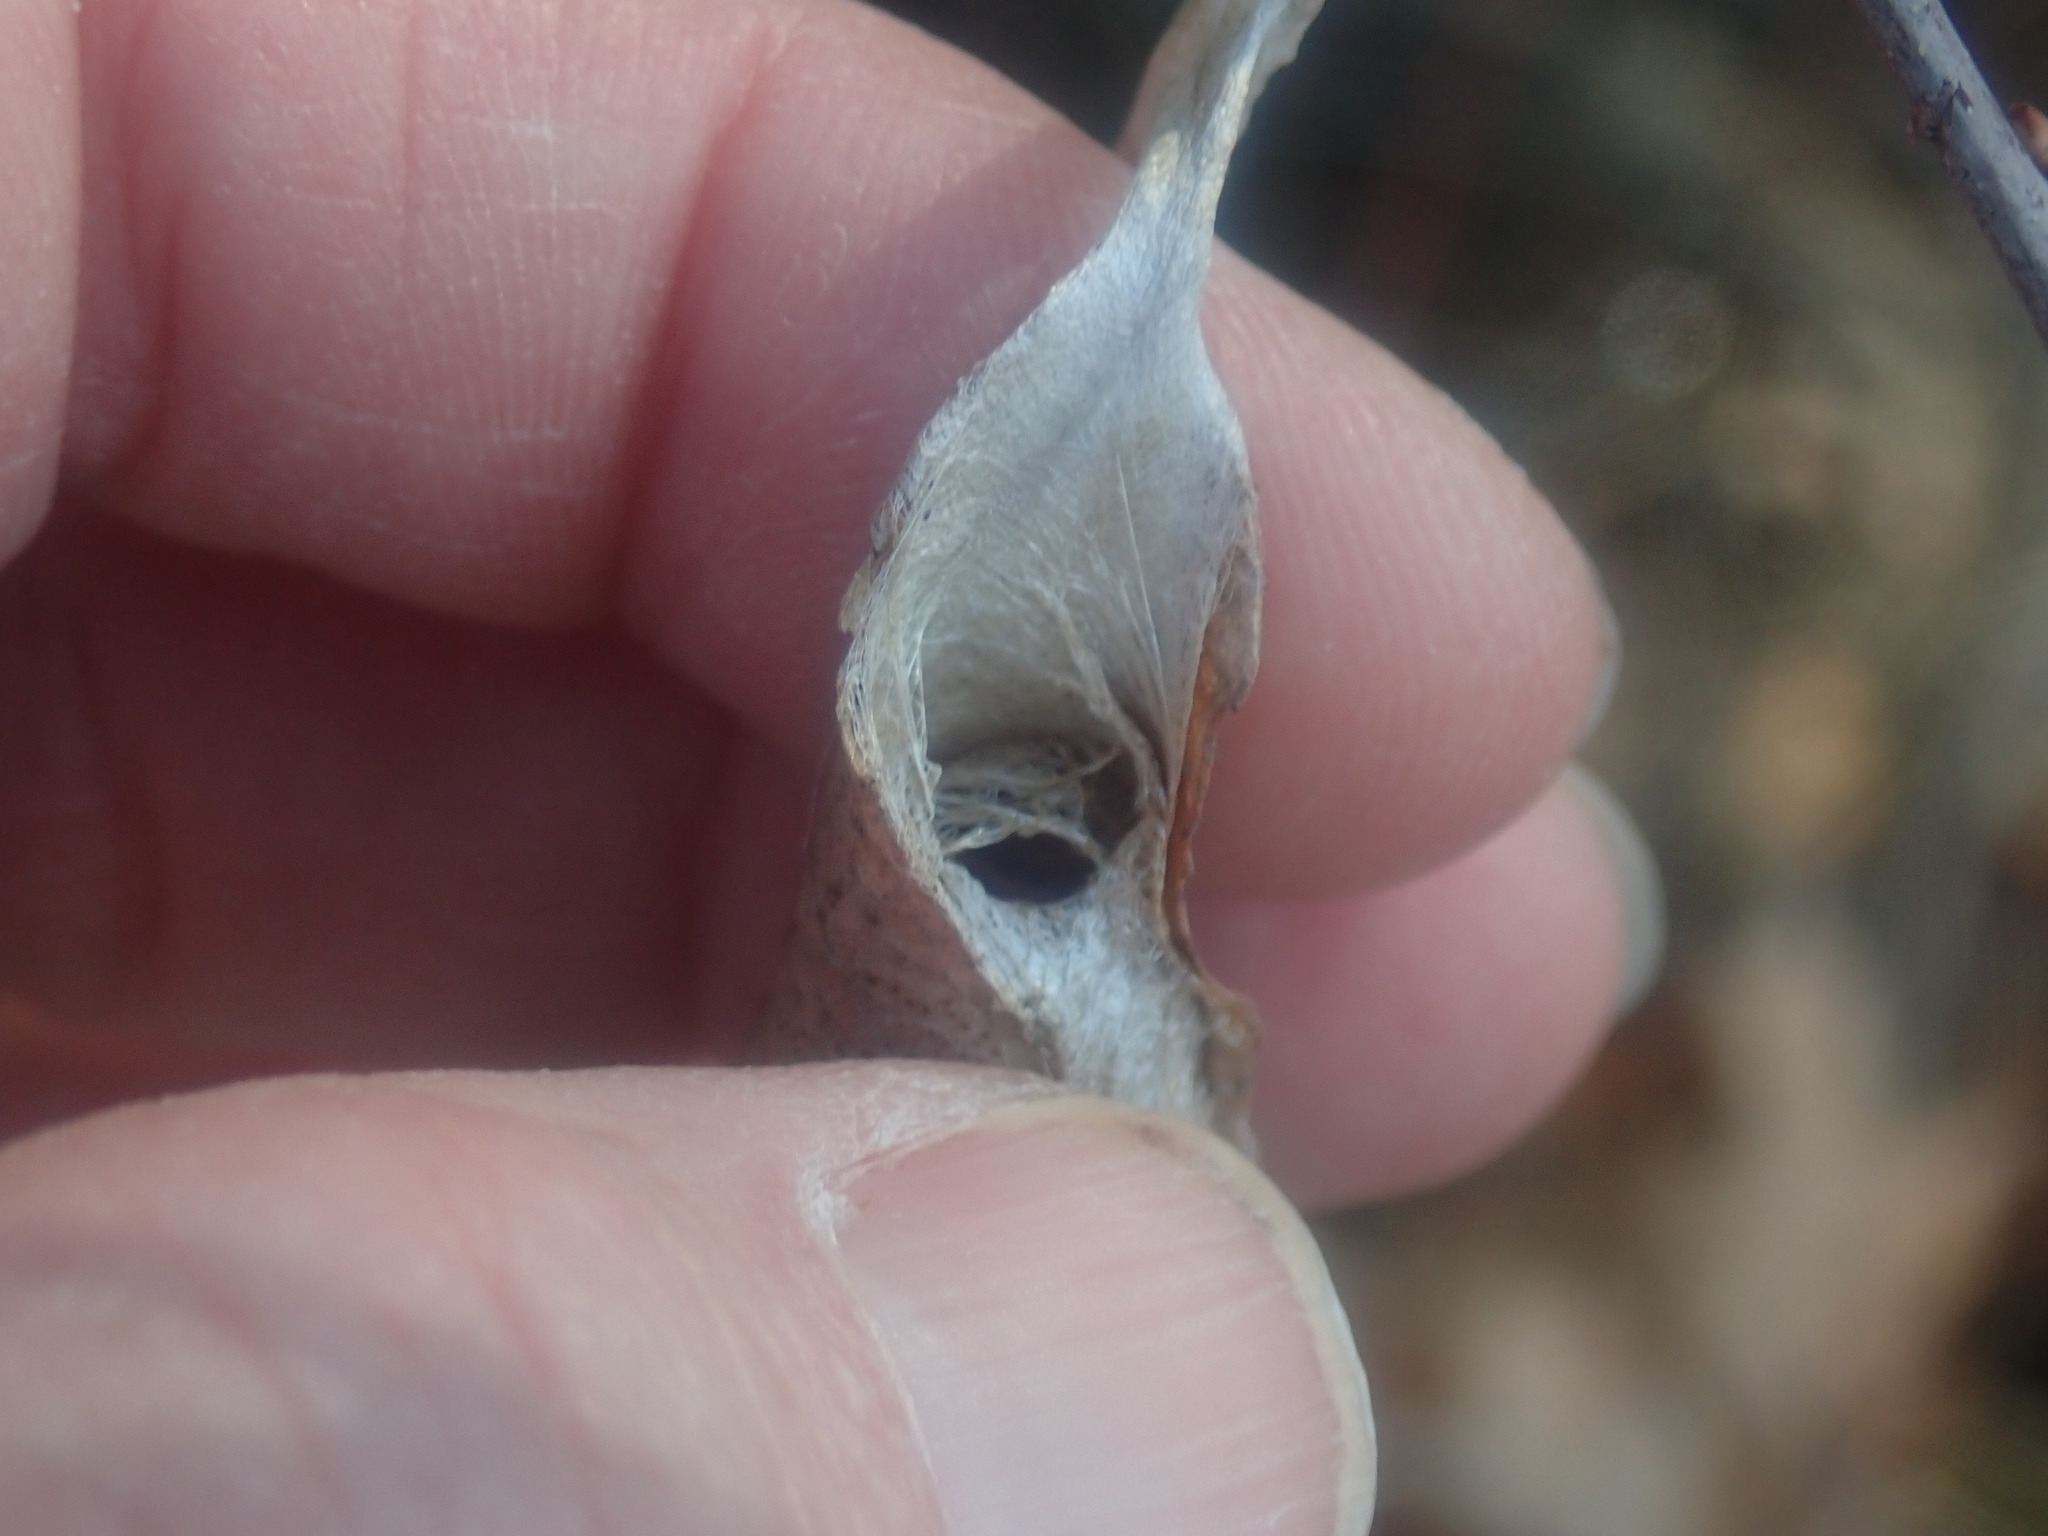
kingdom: Animalia
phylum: Arthropoda
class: Insecta
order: Lepidoptera
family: Saturniidae
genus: Callosamia
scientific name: Callosamia promethea
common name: Promethea silkmoth
